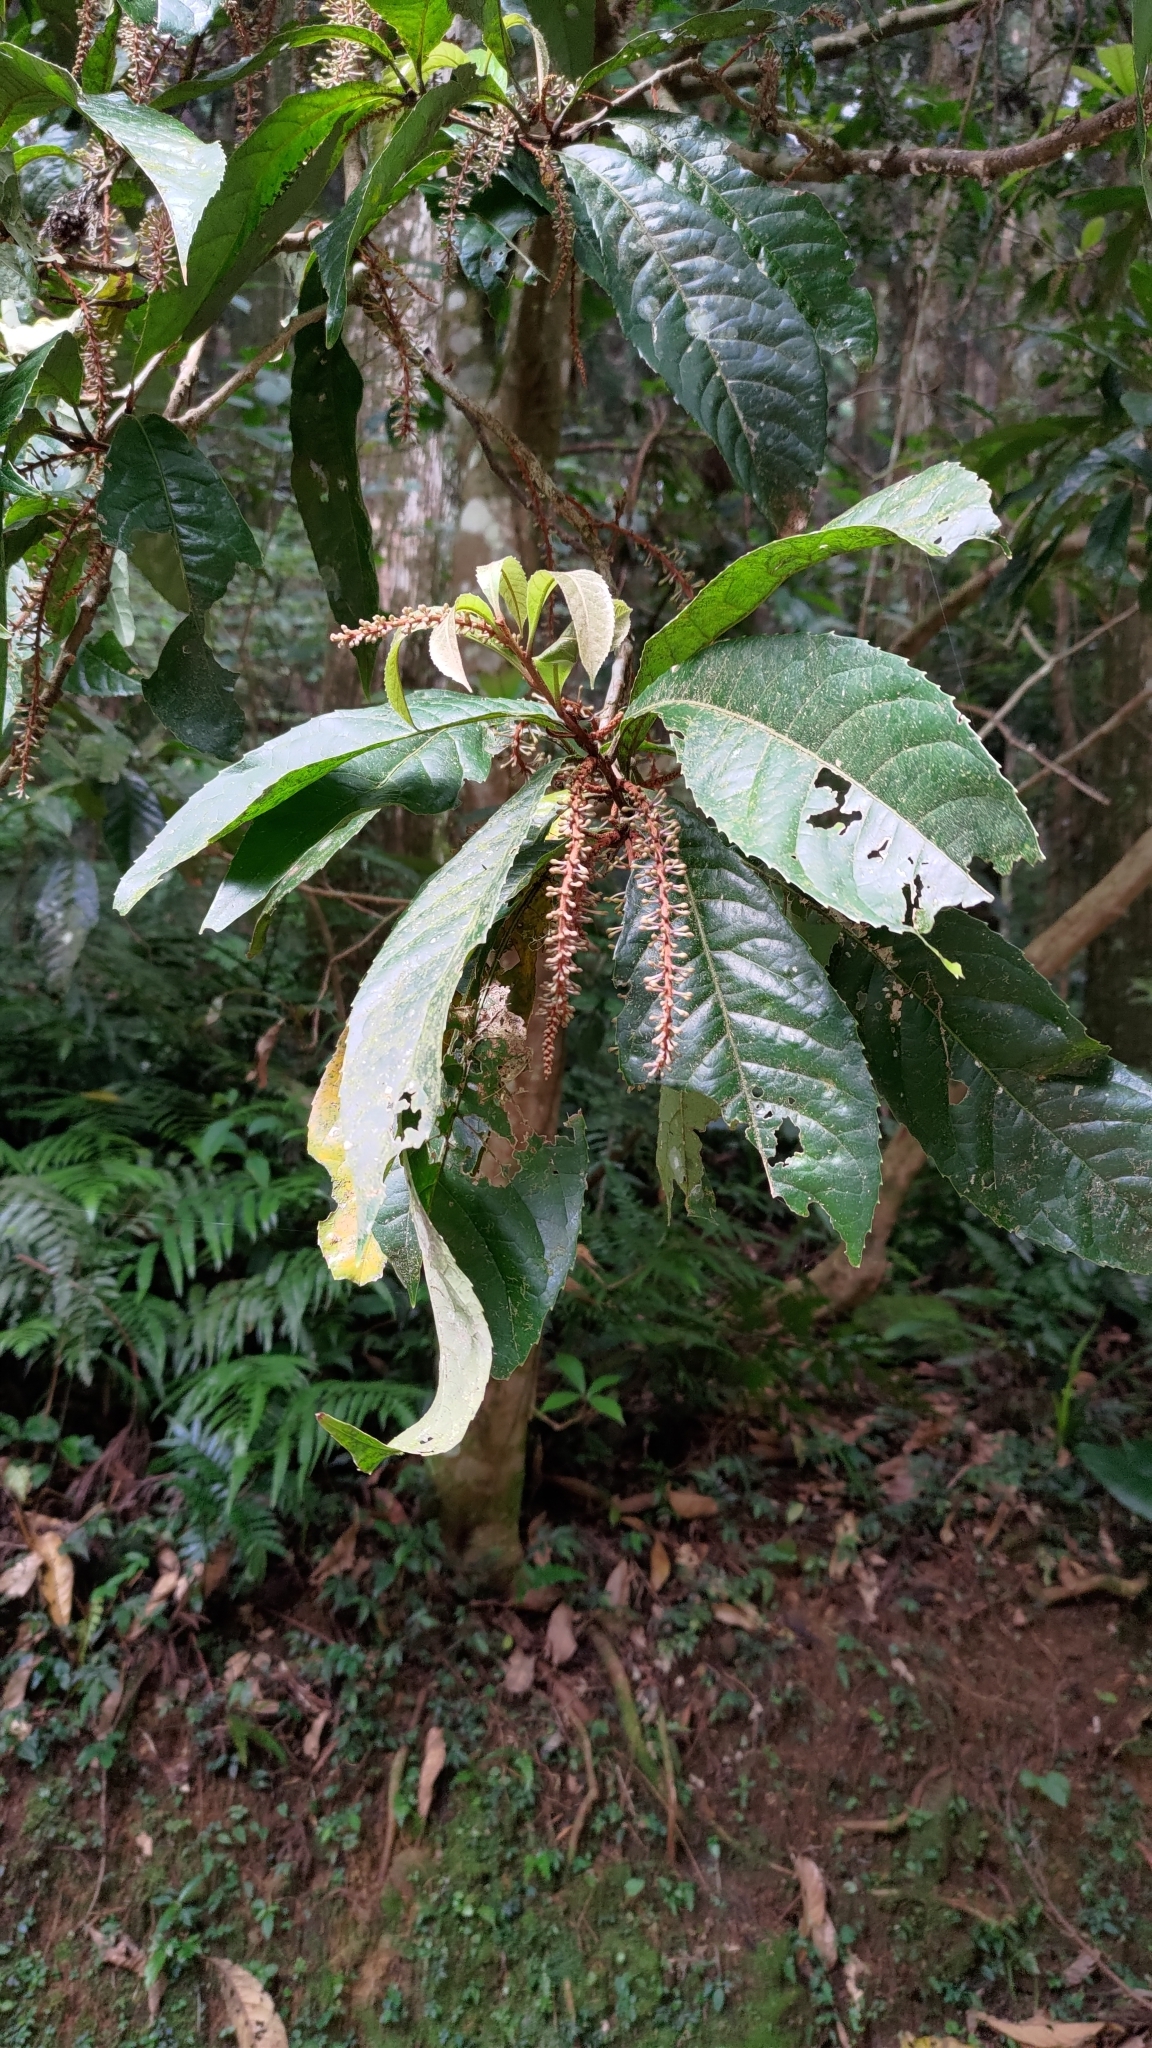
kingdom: Plantae
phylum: Tracheophyta
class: Magnoliopsida
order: Proteales
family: Proteaceae
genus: Helicia
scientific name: Helicia formosana
